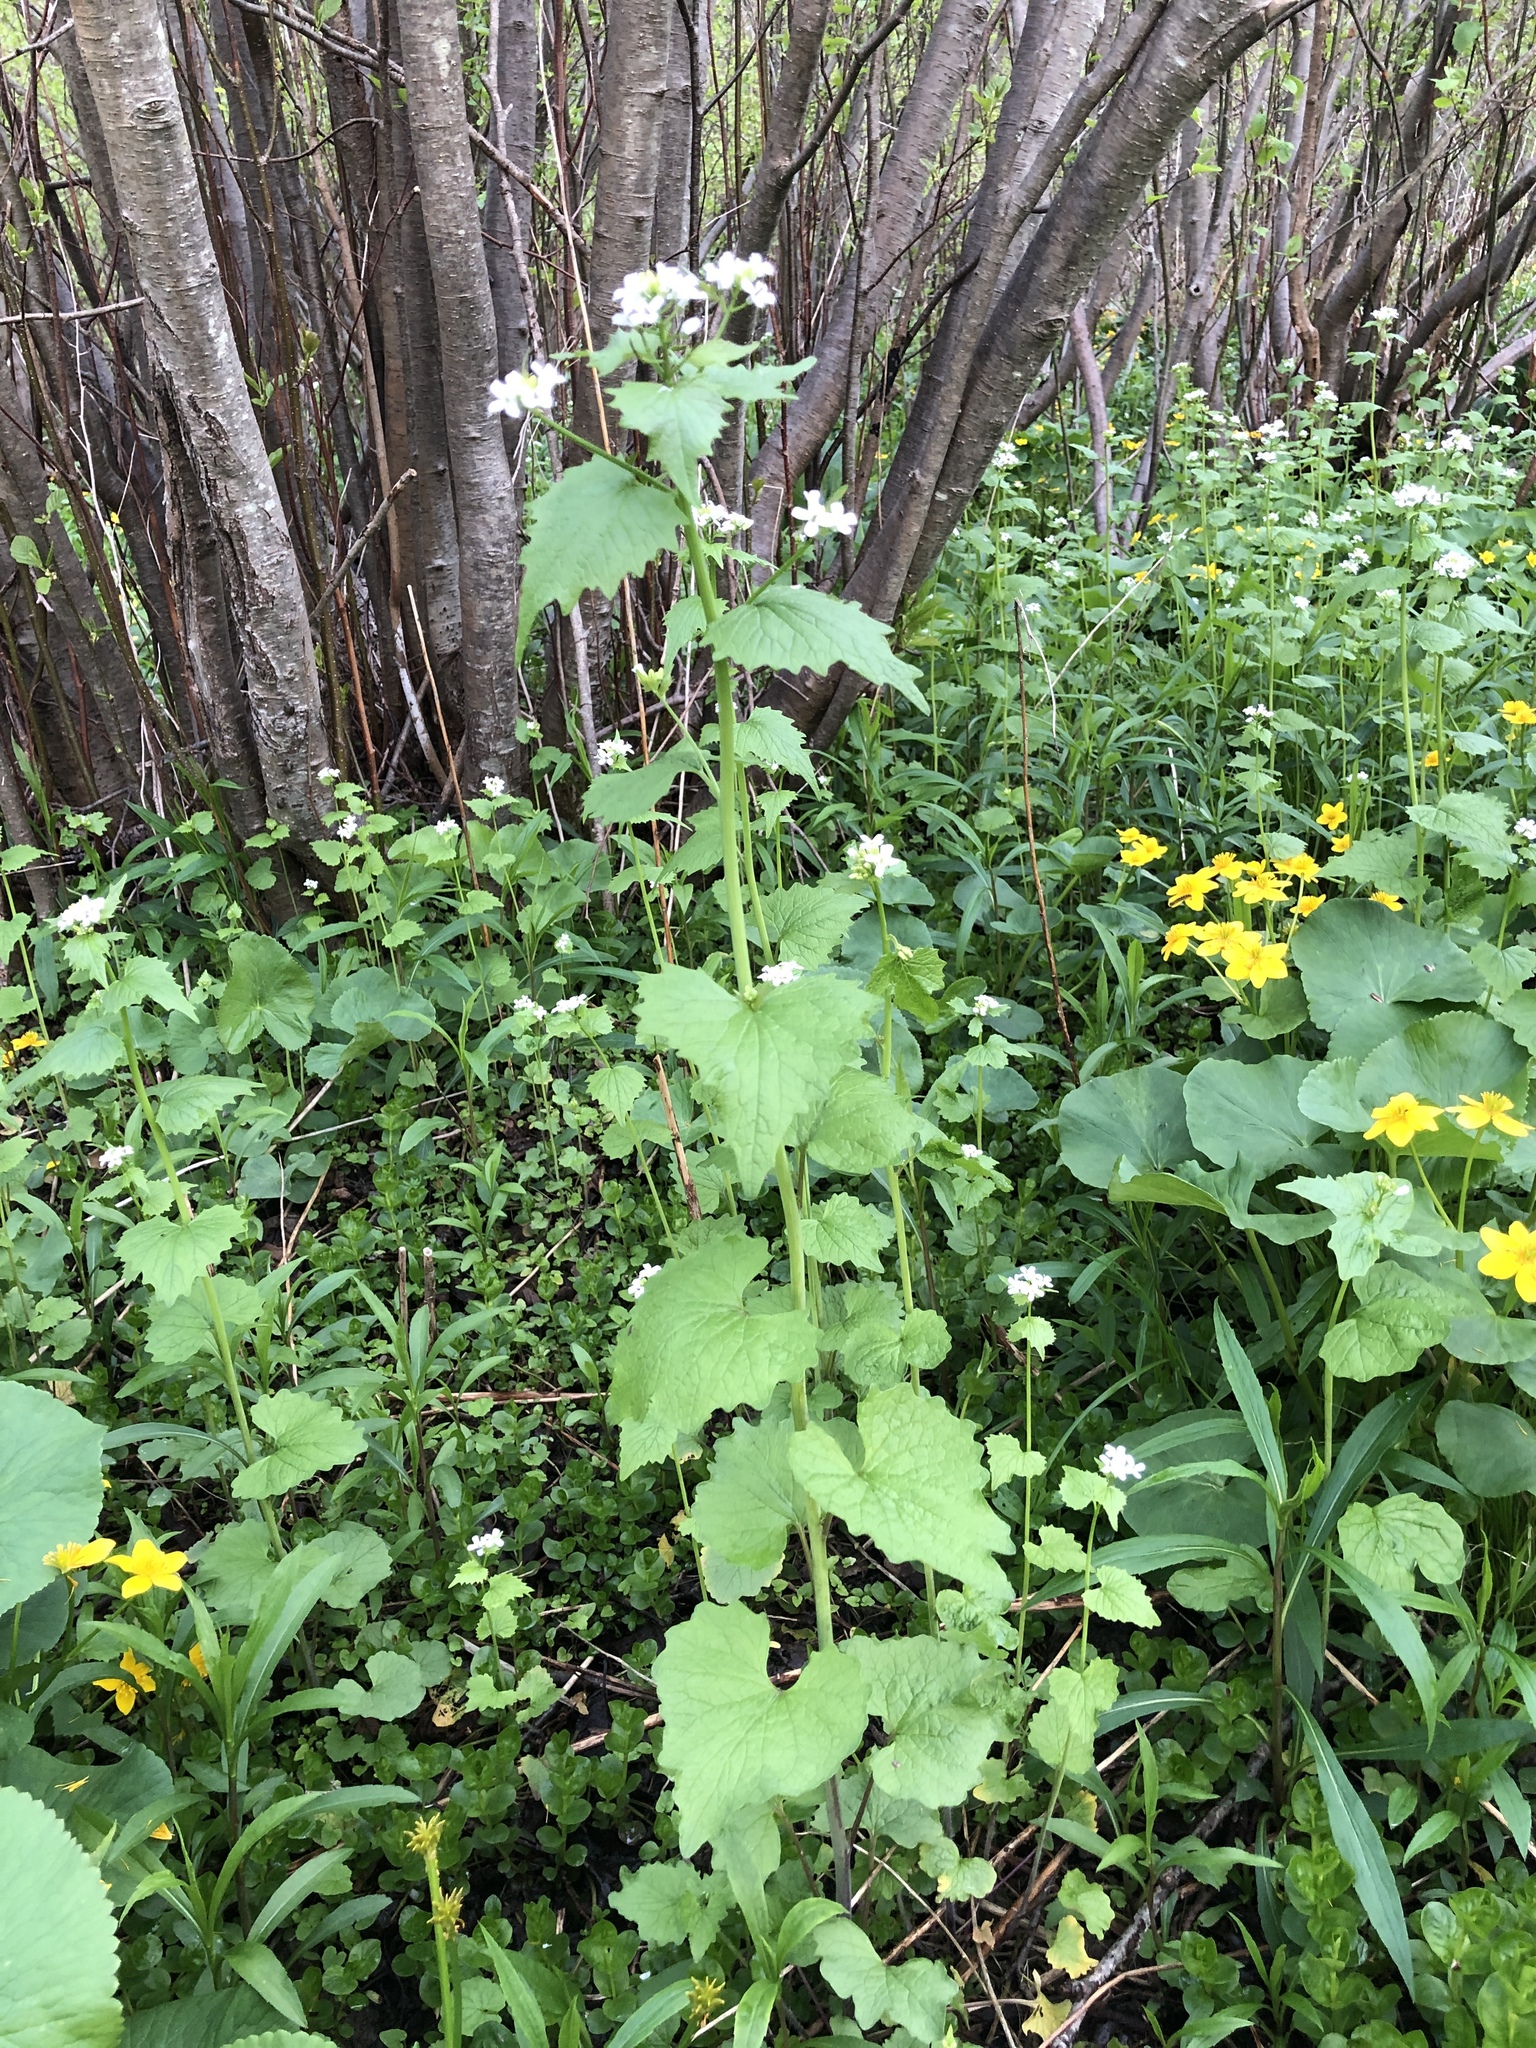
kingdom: Plantae
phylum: Tracheophyta
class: Magnoliopsida
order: Brassicales
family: Brassicaceae
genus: Alliaria
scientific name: Alliaria petiolata
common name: Garlic mustard
